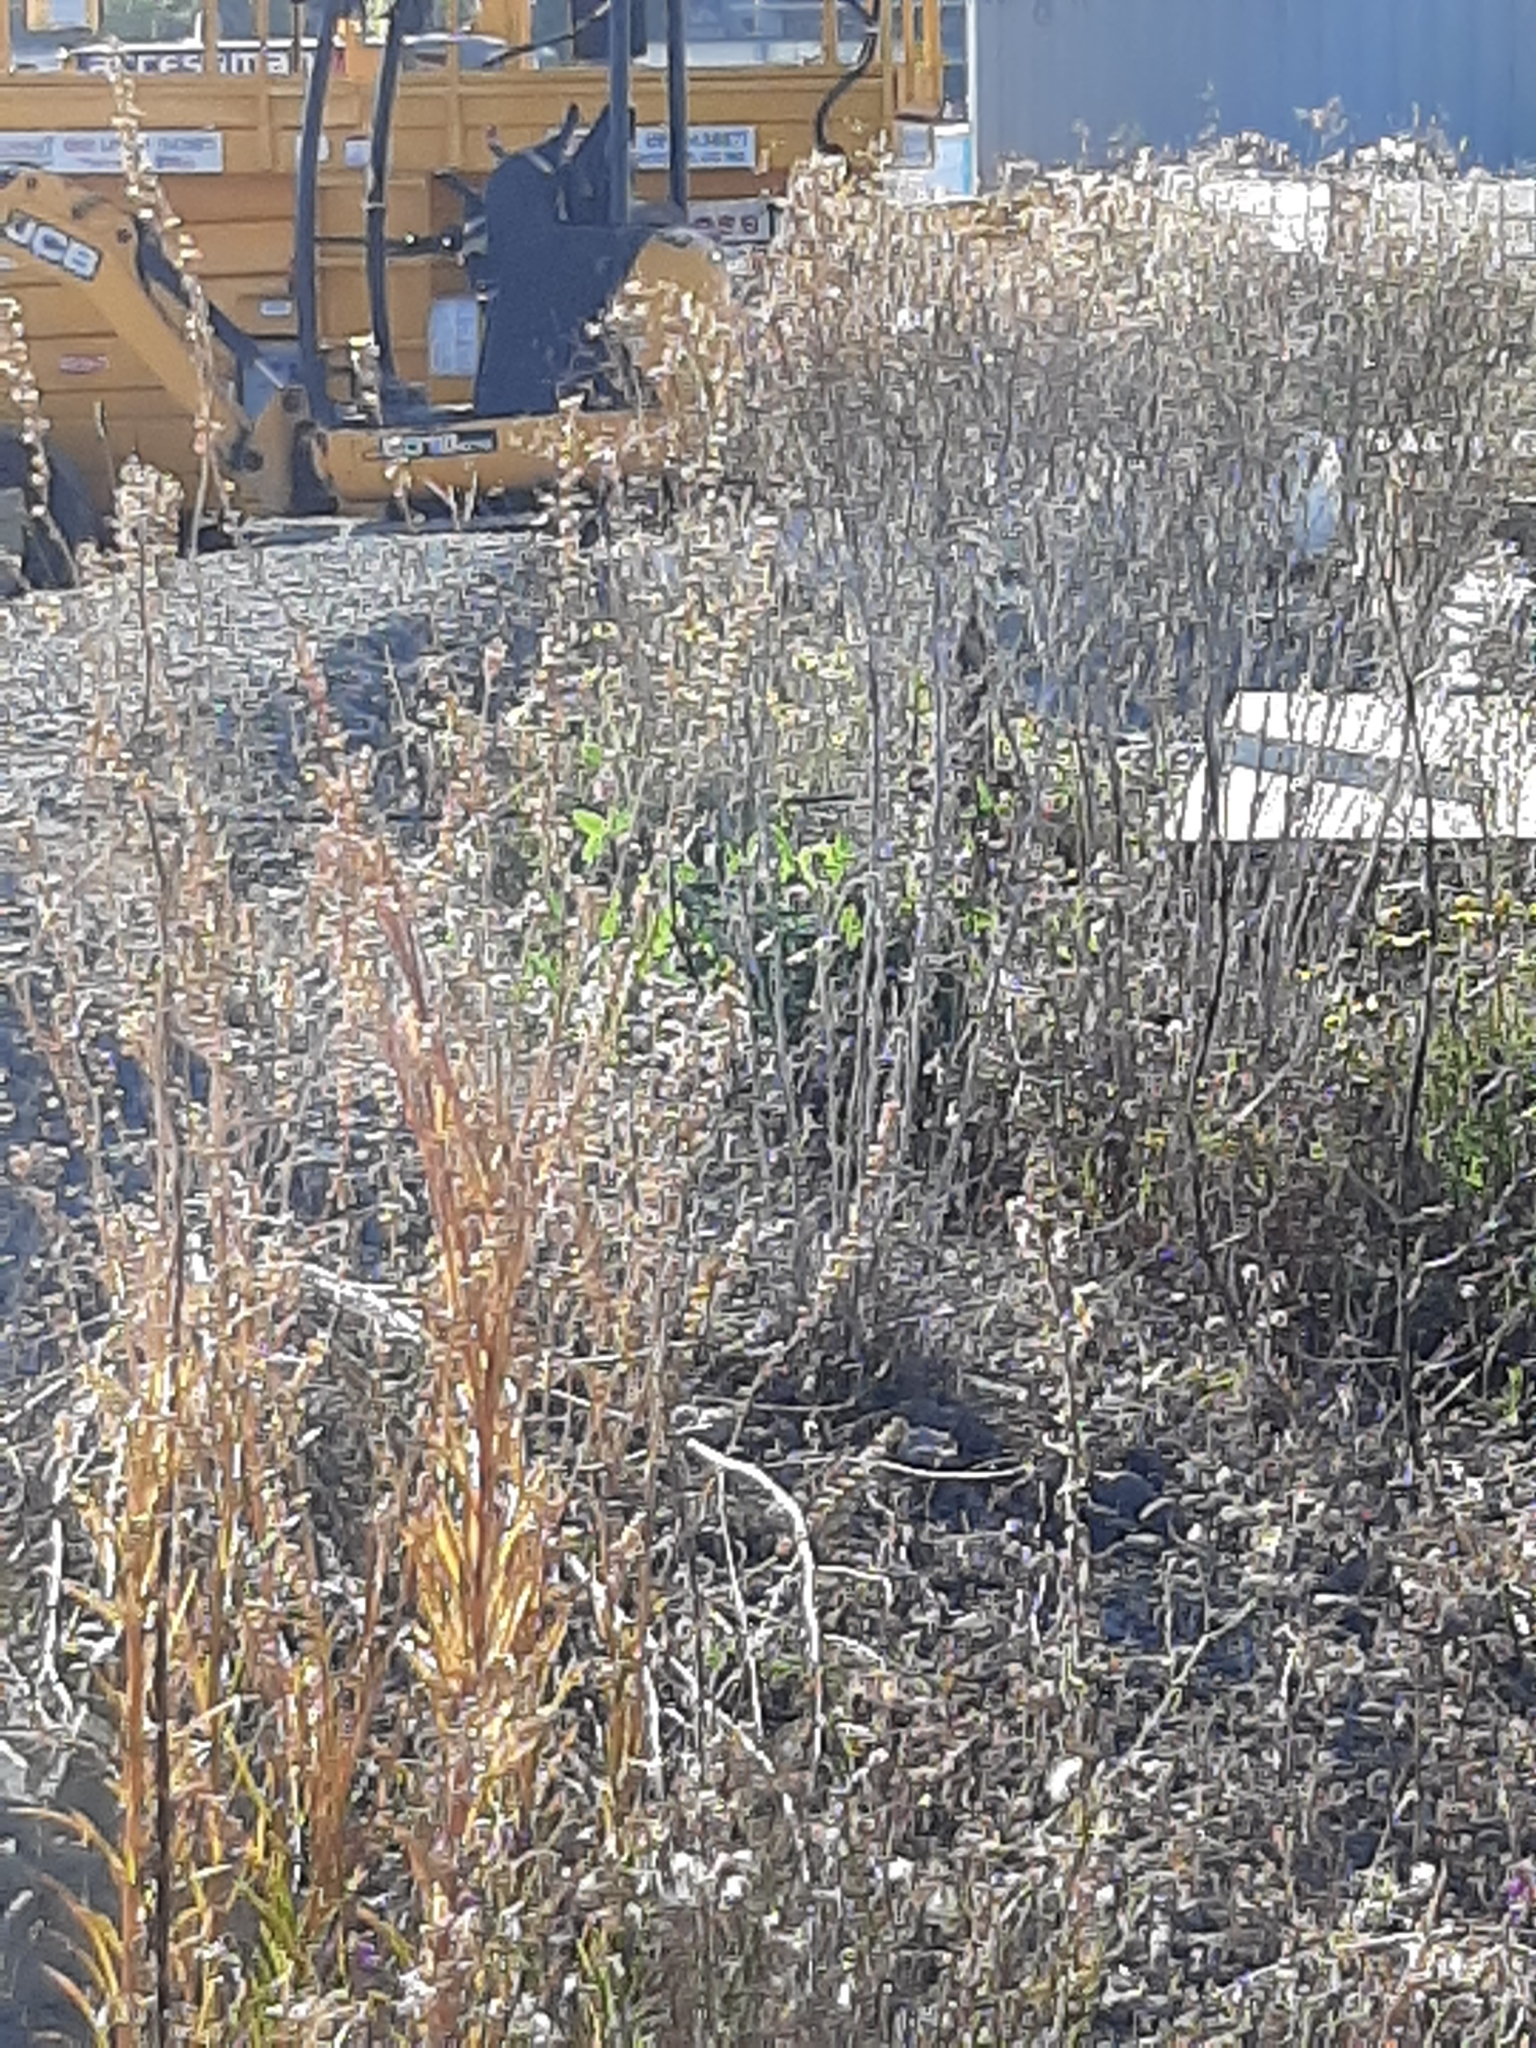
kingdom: Plantae
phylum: Tracheophyta
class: Magnoliopsida
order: Fabales
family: Fabaceae
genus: Trifolium
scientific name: Trifolium pratense
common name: Red clover
